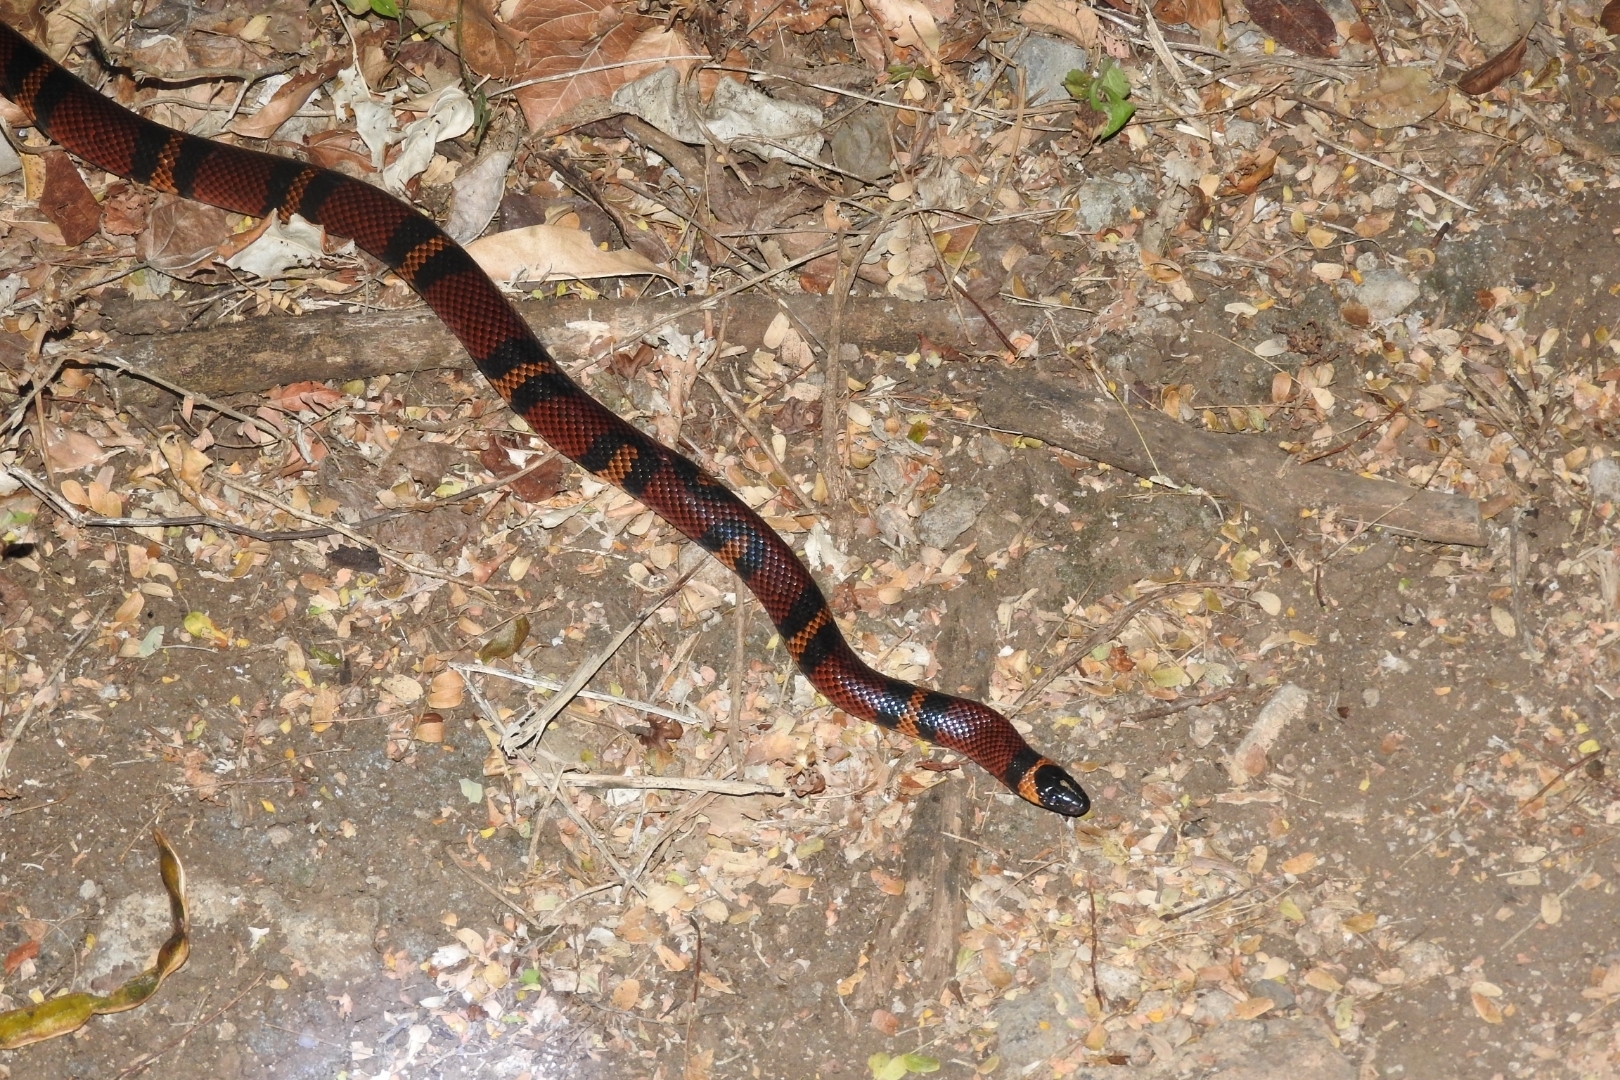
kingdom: Animalia
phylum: Chordata
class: Squamata
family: Colubridae
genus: Lampropeltis
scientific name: Lampropeltis abnorma
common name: Honduran milk snake
